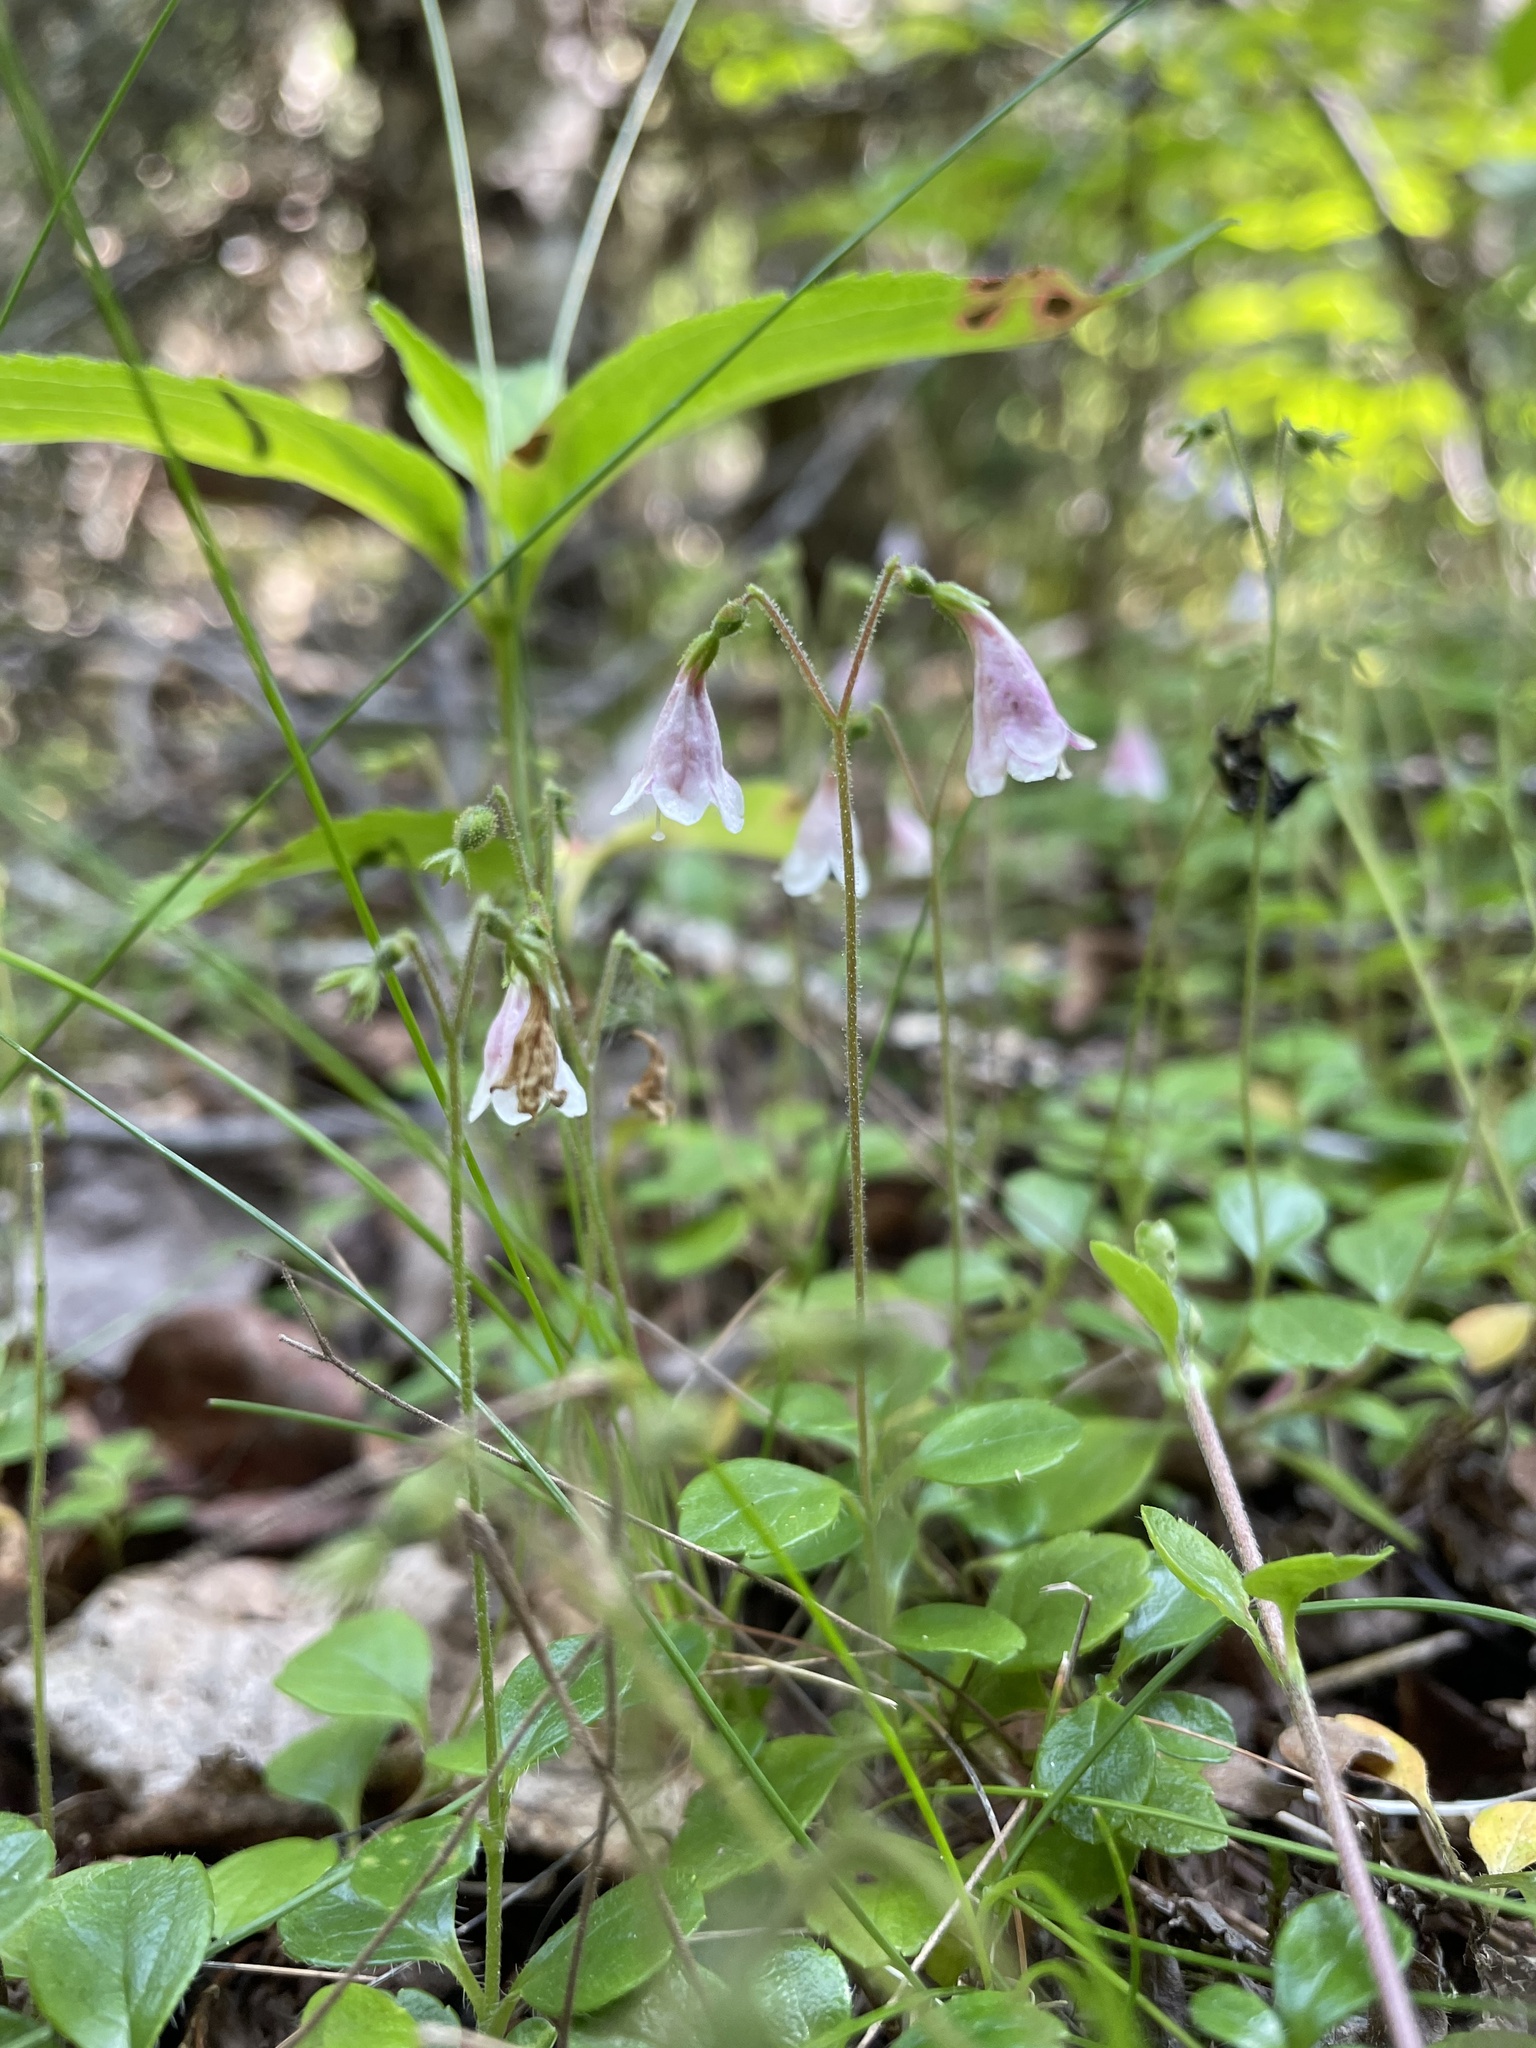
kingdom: Plantae
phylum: Tracheophyta
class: Magnoliopsida
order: Dipsacales
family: Caprifoliaceae
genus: Linnaea
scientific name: Linnaea borealis
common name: Twinflower
